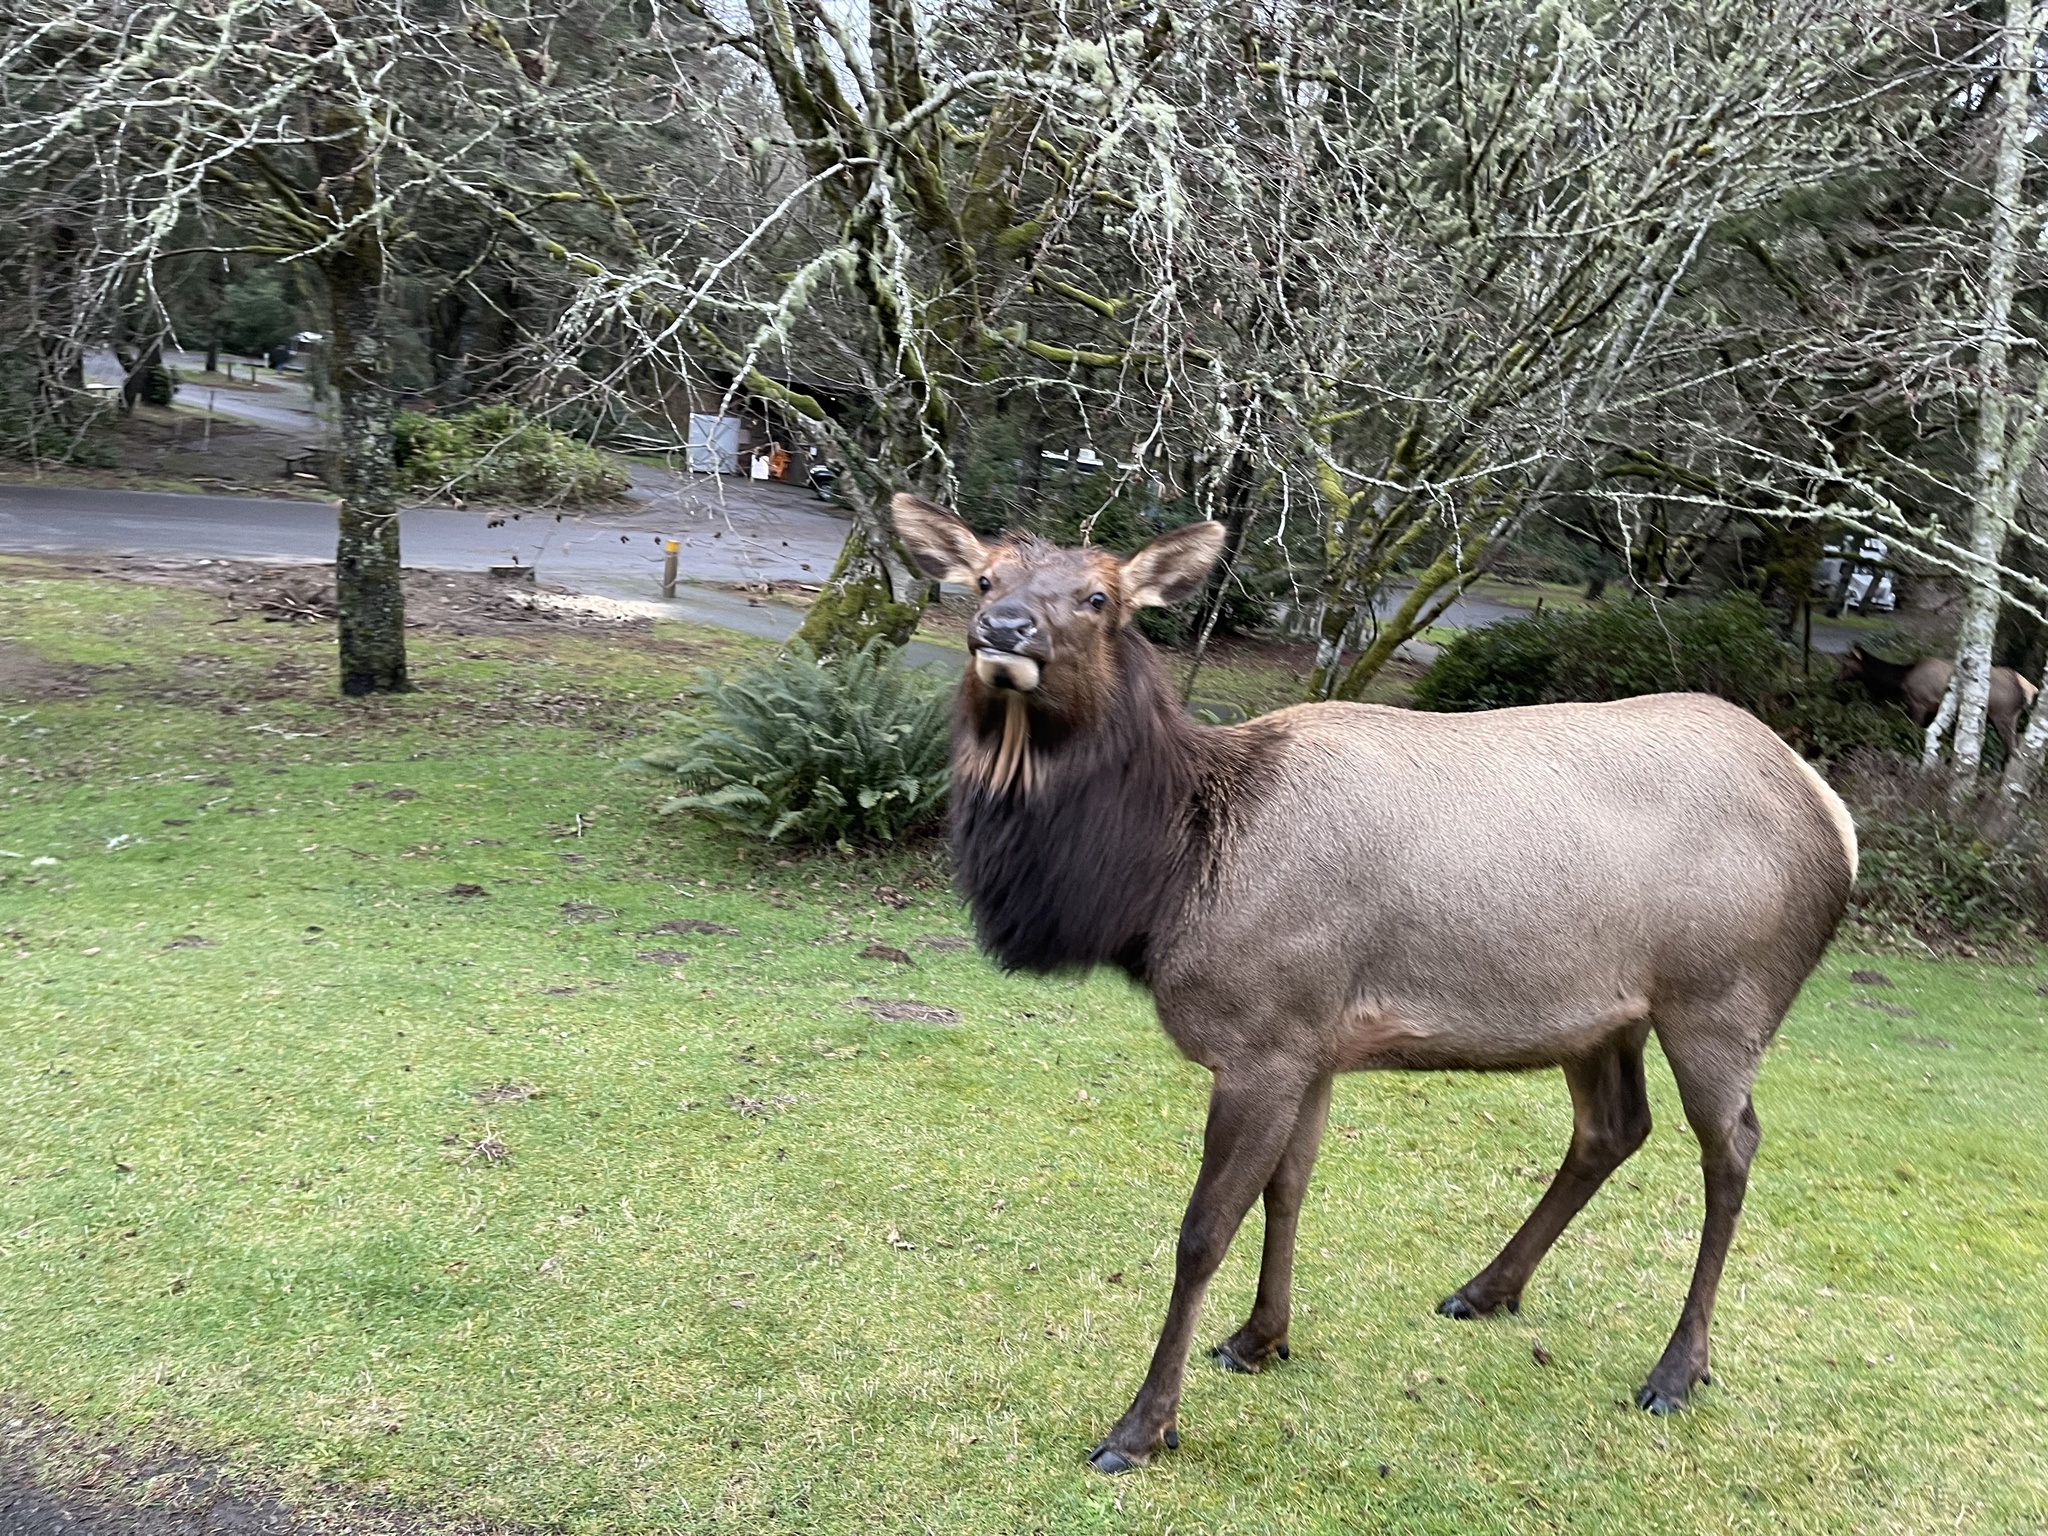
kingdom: Animalia
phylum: Chordata
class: Mammalia
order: Artiodactyla
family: Cervidae
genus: Cervus
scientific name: Cervus elaphus
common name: Red deer
